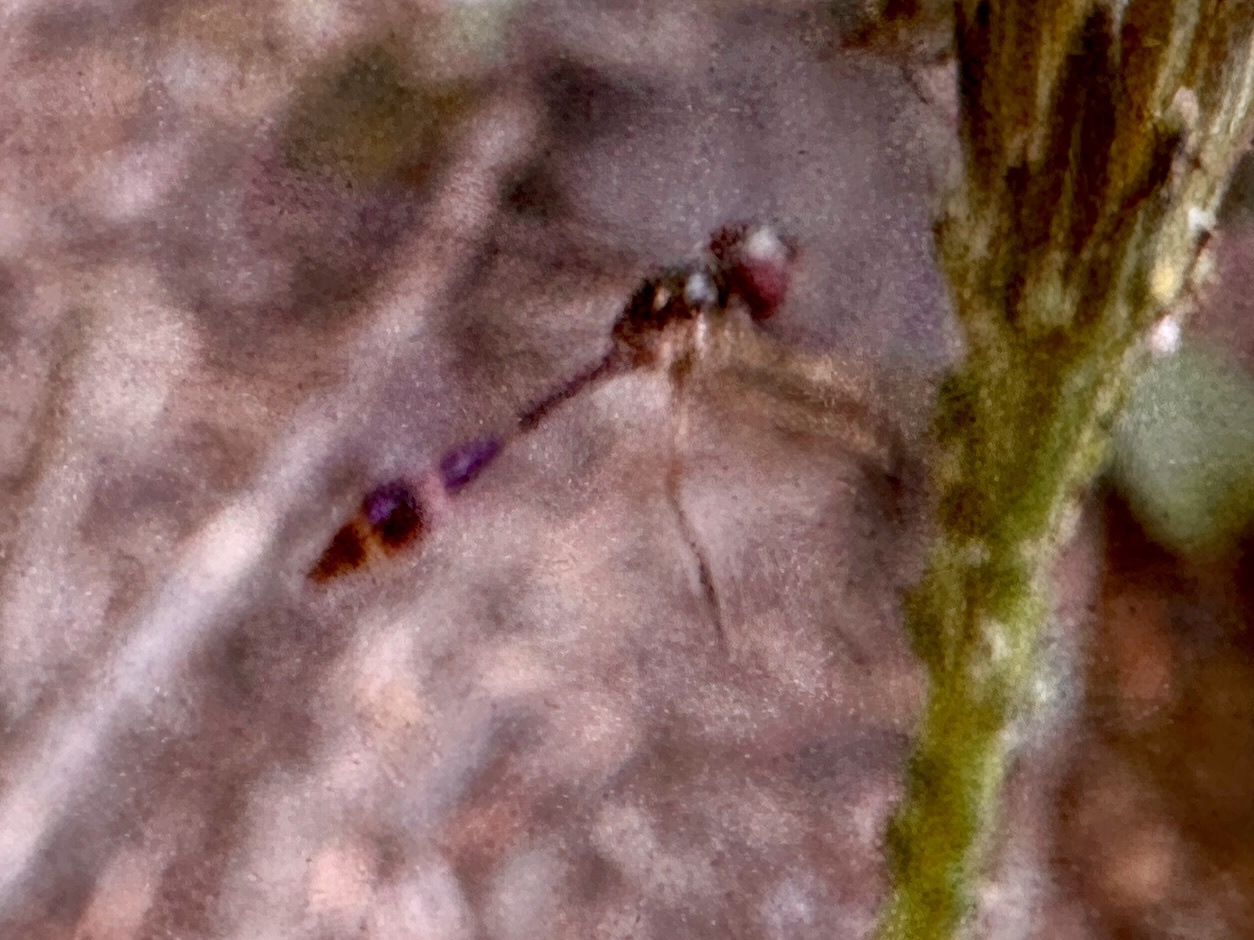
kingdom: Animalia
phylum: Arthropoda
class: Insecta
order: Diptera
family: Syrphidae
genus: Baccha
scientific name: Baccha cognata
